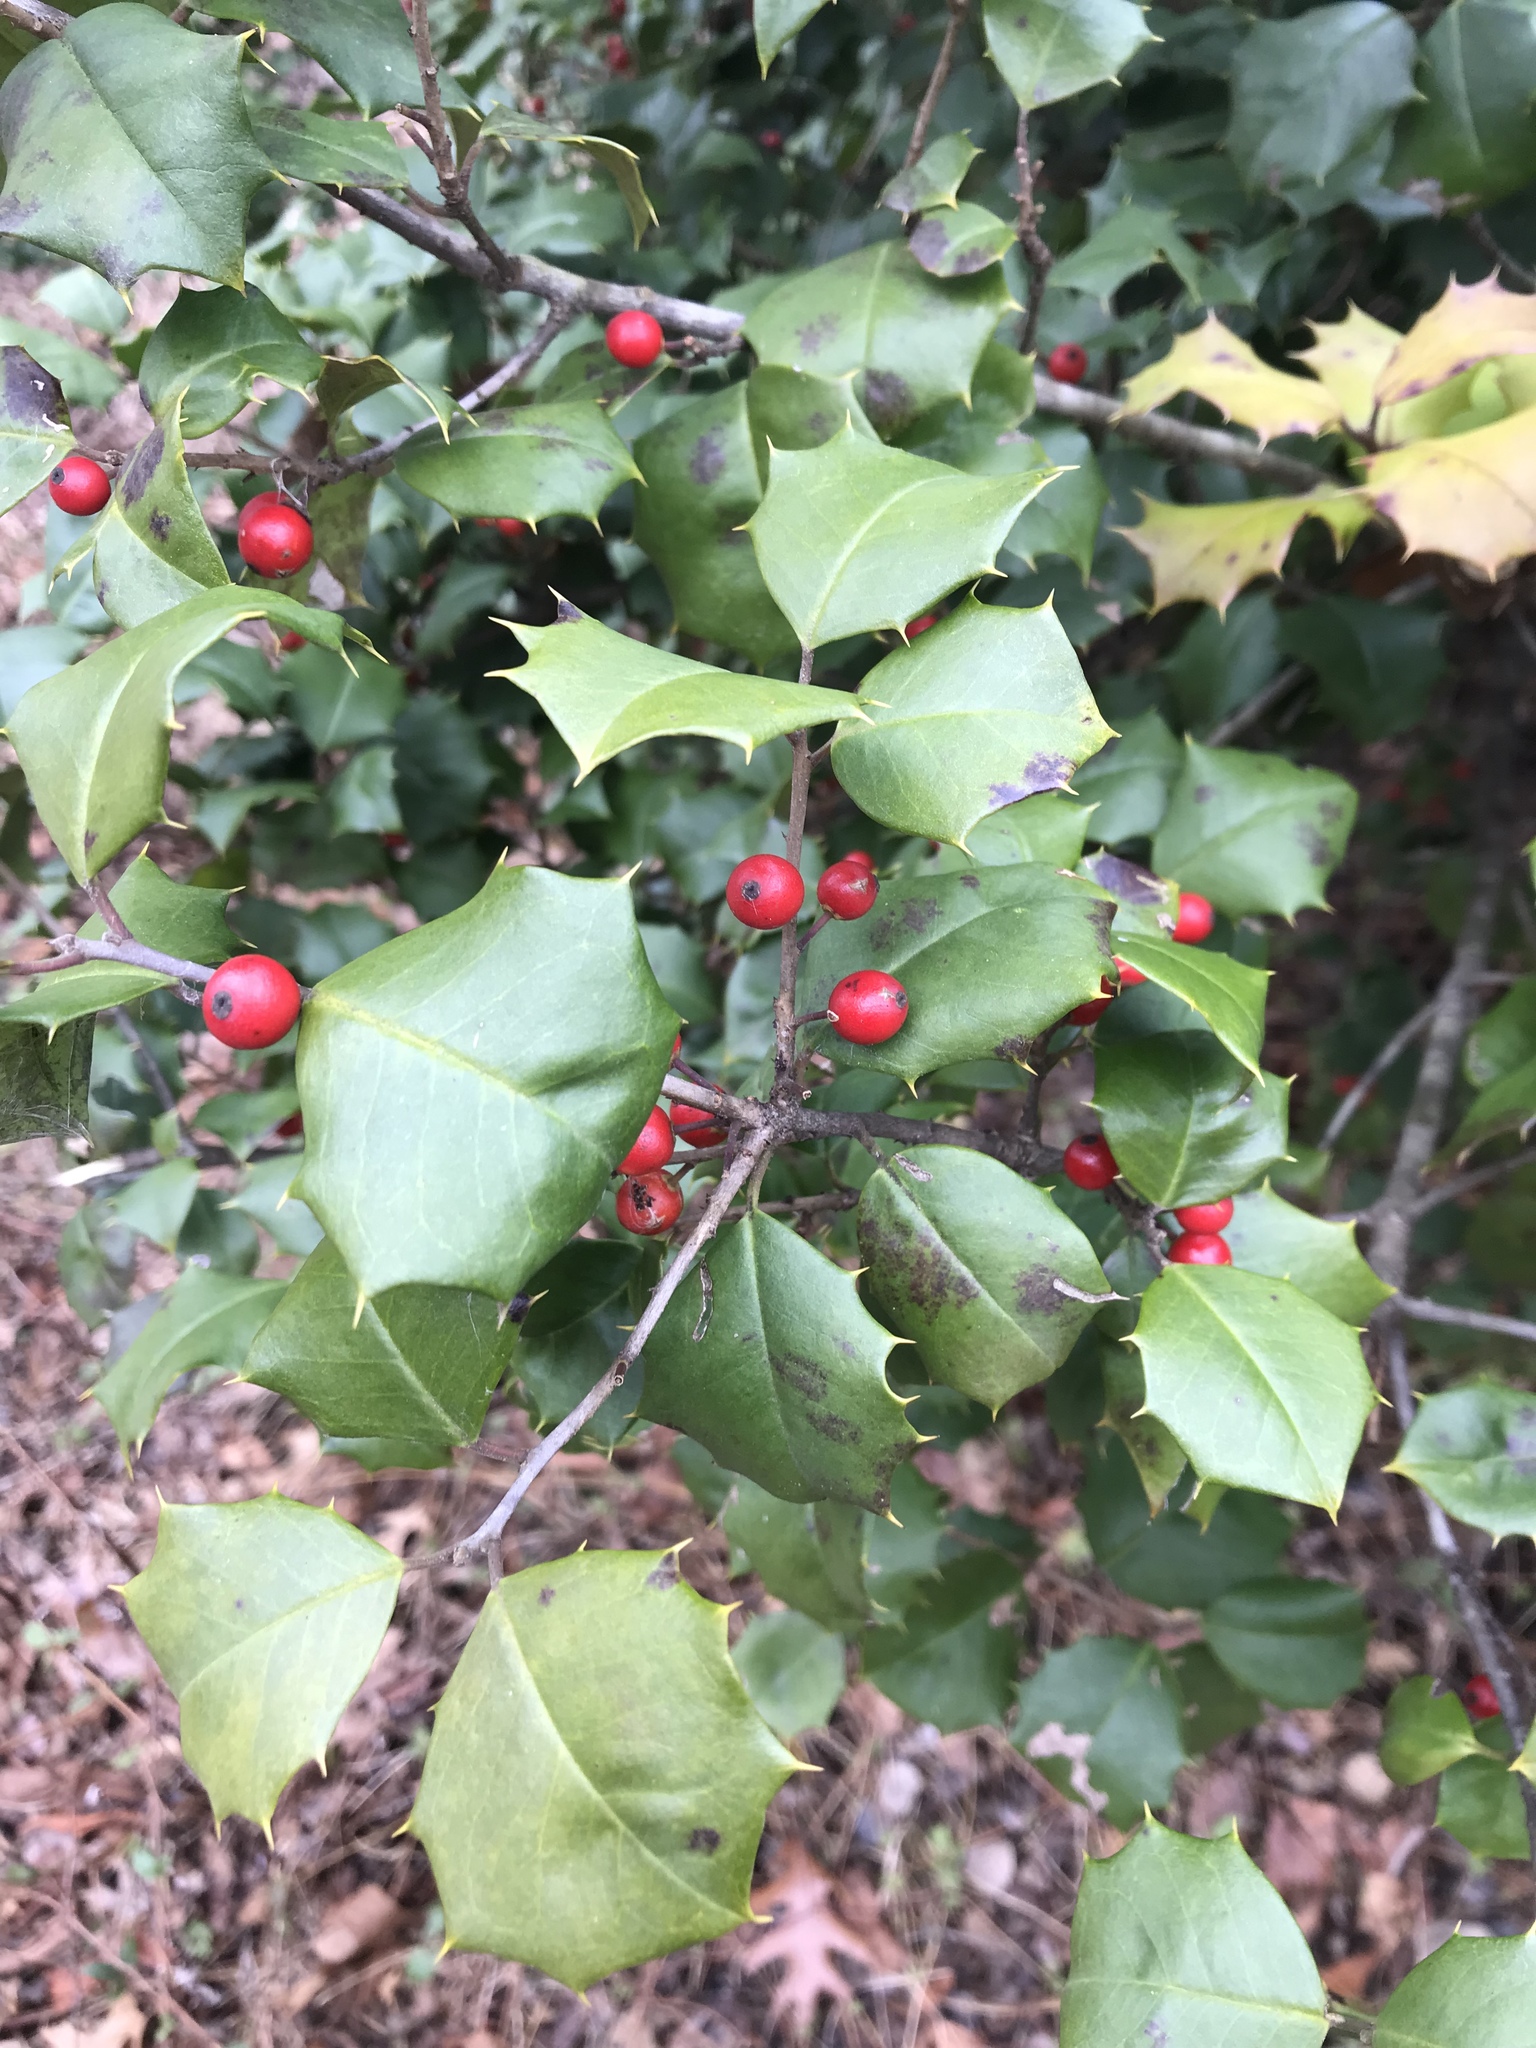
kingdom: Plantae
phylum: Tracheophyta
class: Magnoliopsida
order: Aquifoliales
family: Aquifoliaceae
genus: Ilex
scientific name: Ilex opaca
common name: American holly
